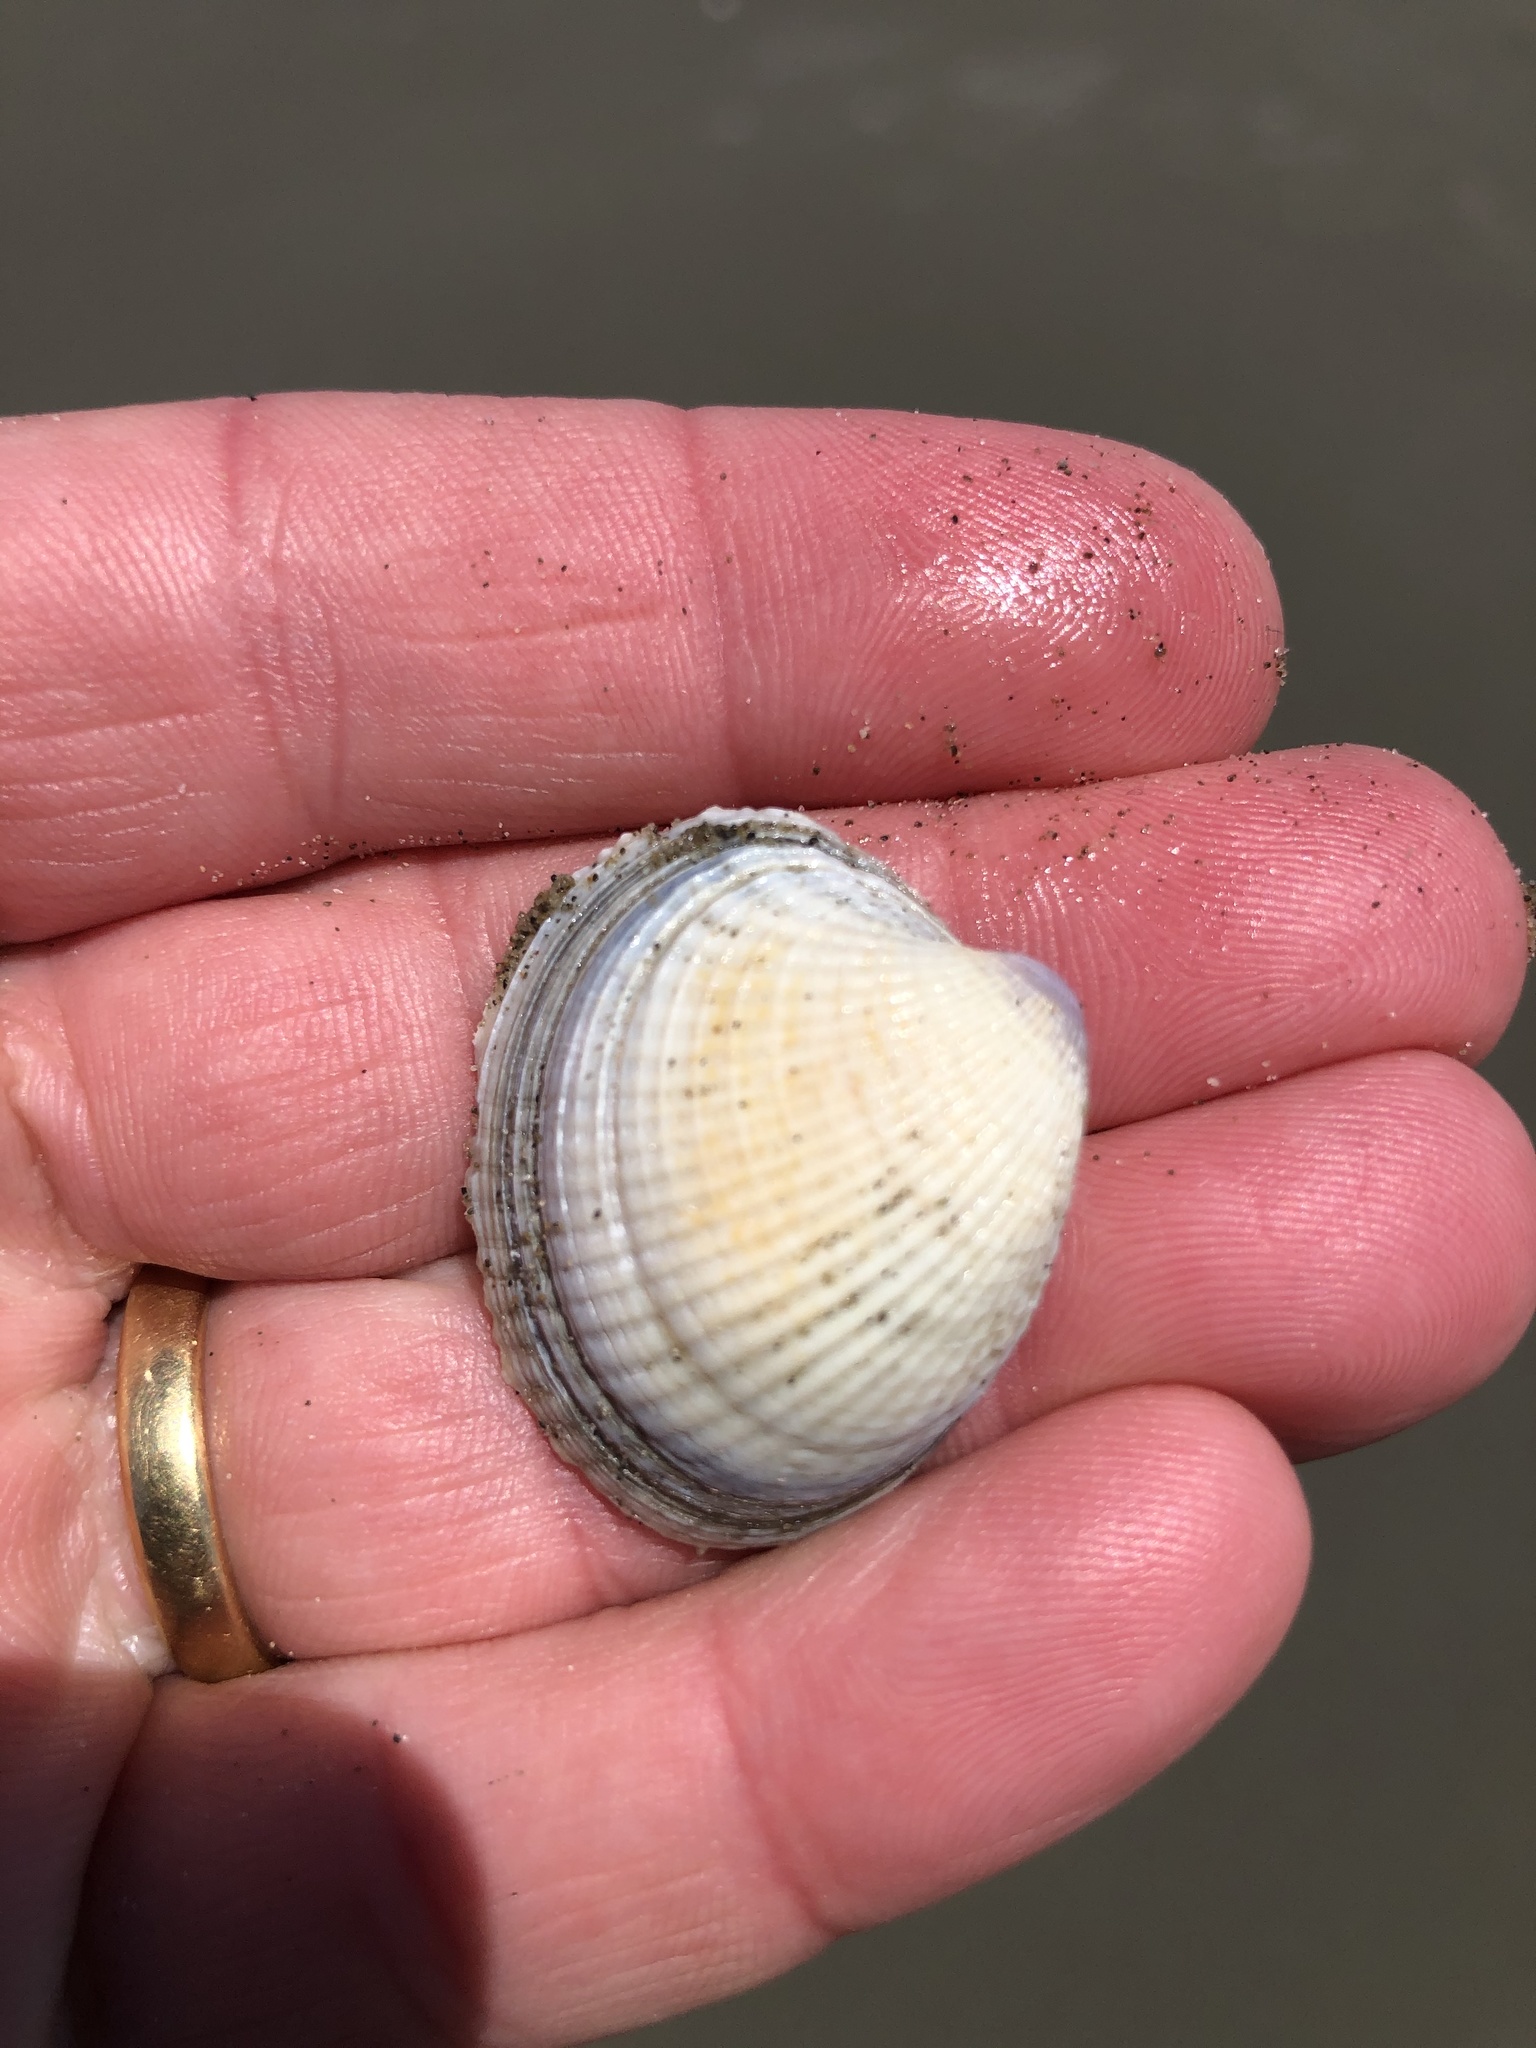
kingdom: Animalia
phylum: Mollusca
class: Bivalvia
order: Venerida
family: Veneridae
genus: Austrovenus
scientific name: Austrovenus stutchburyi
